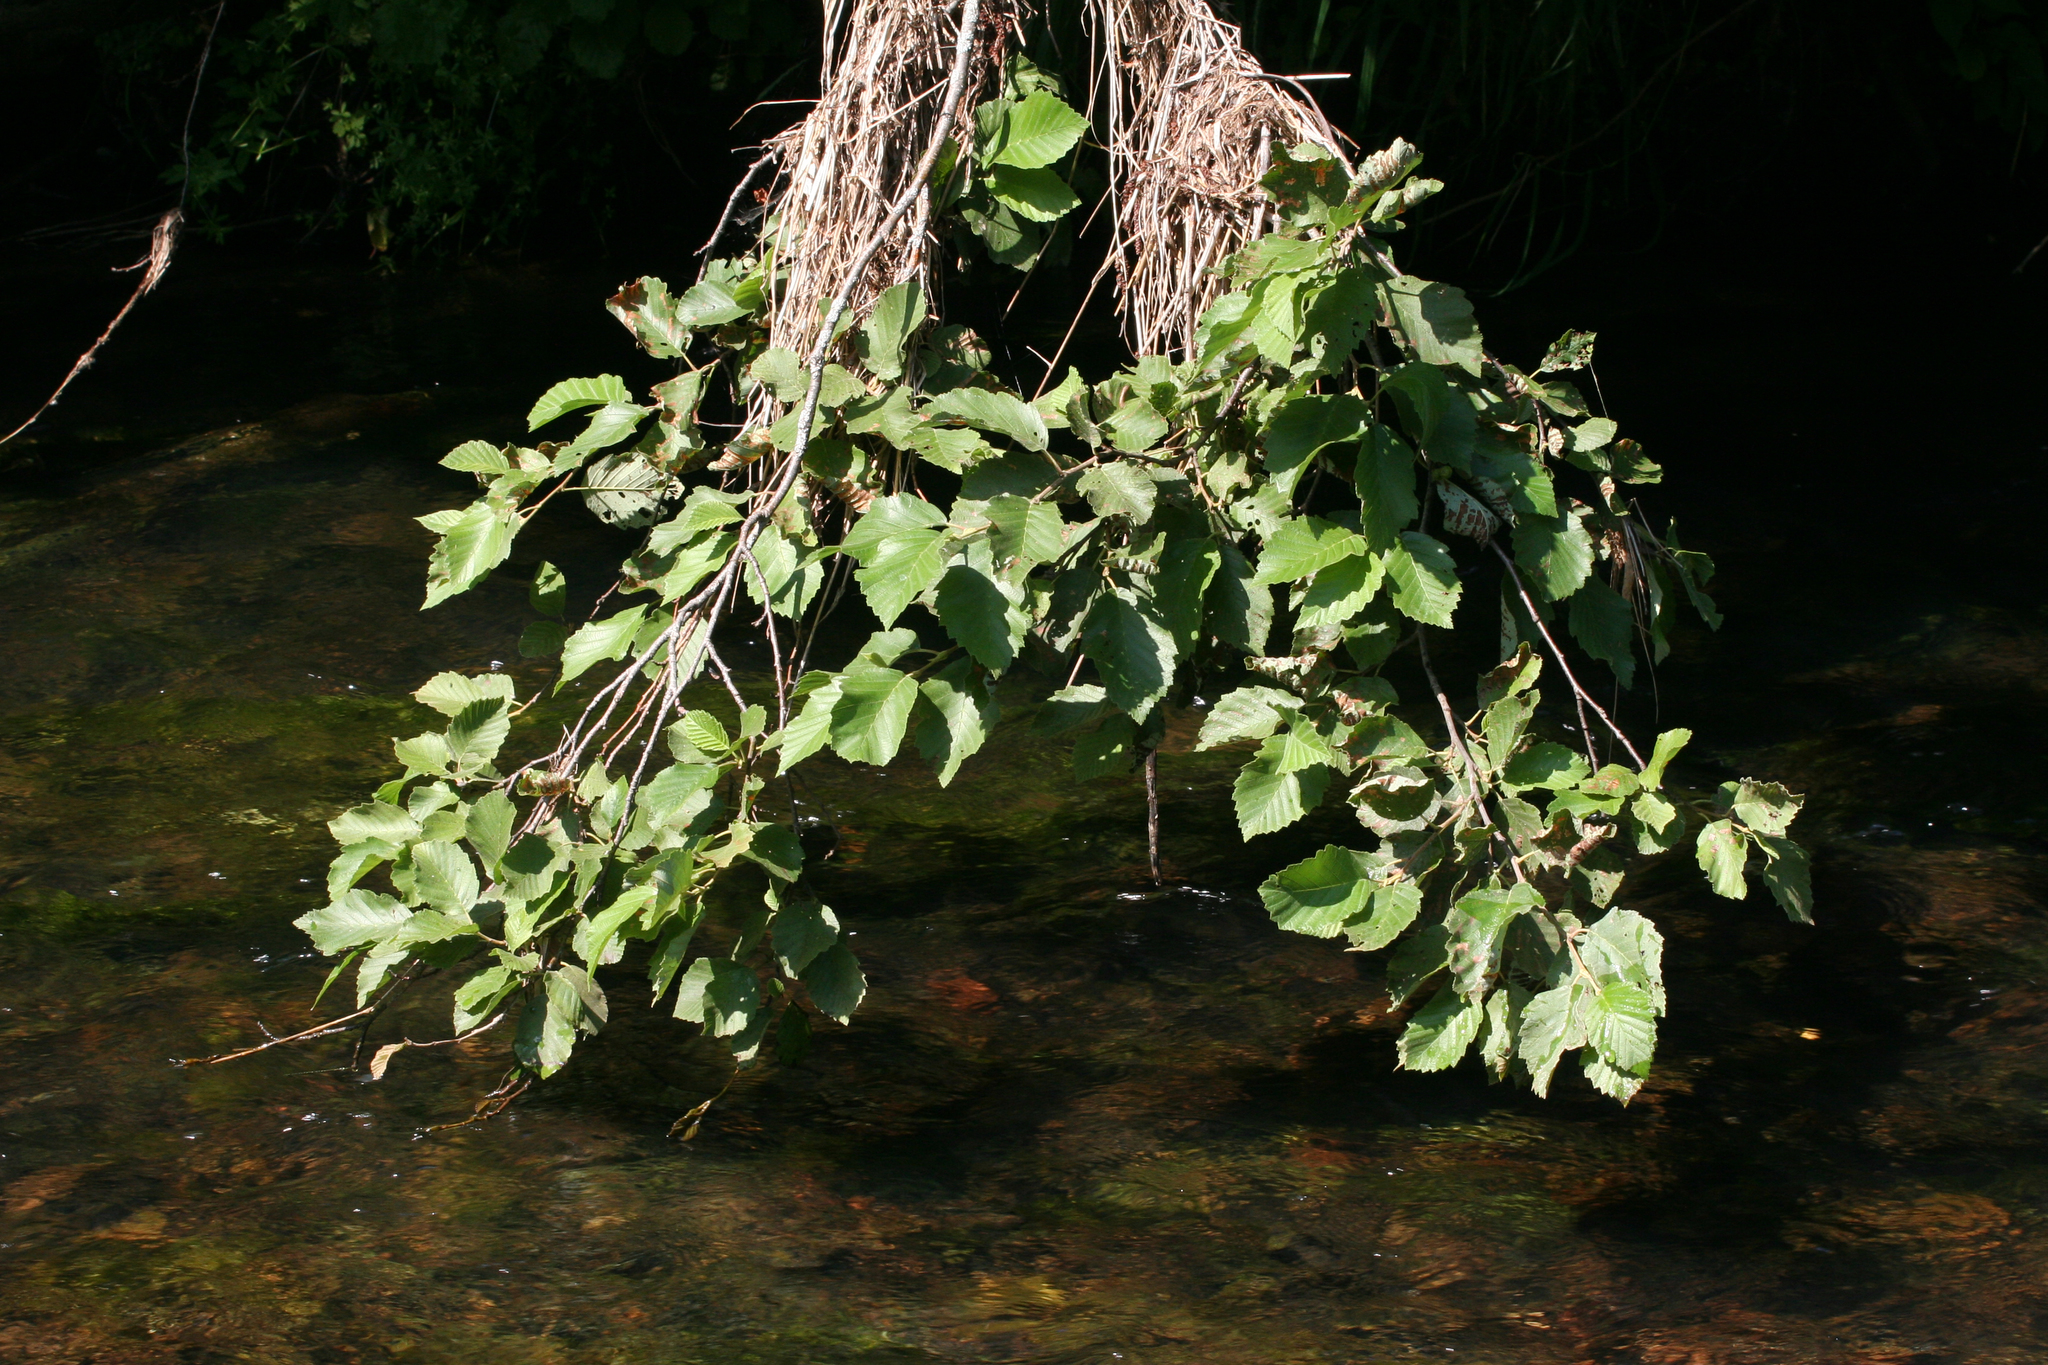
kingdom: Plantae
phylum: Tracheophyta
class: Magnoliopsida
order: Fagales
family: Betulaceae
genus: Alnus
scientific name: Alnus incana
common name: Grey alder
